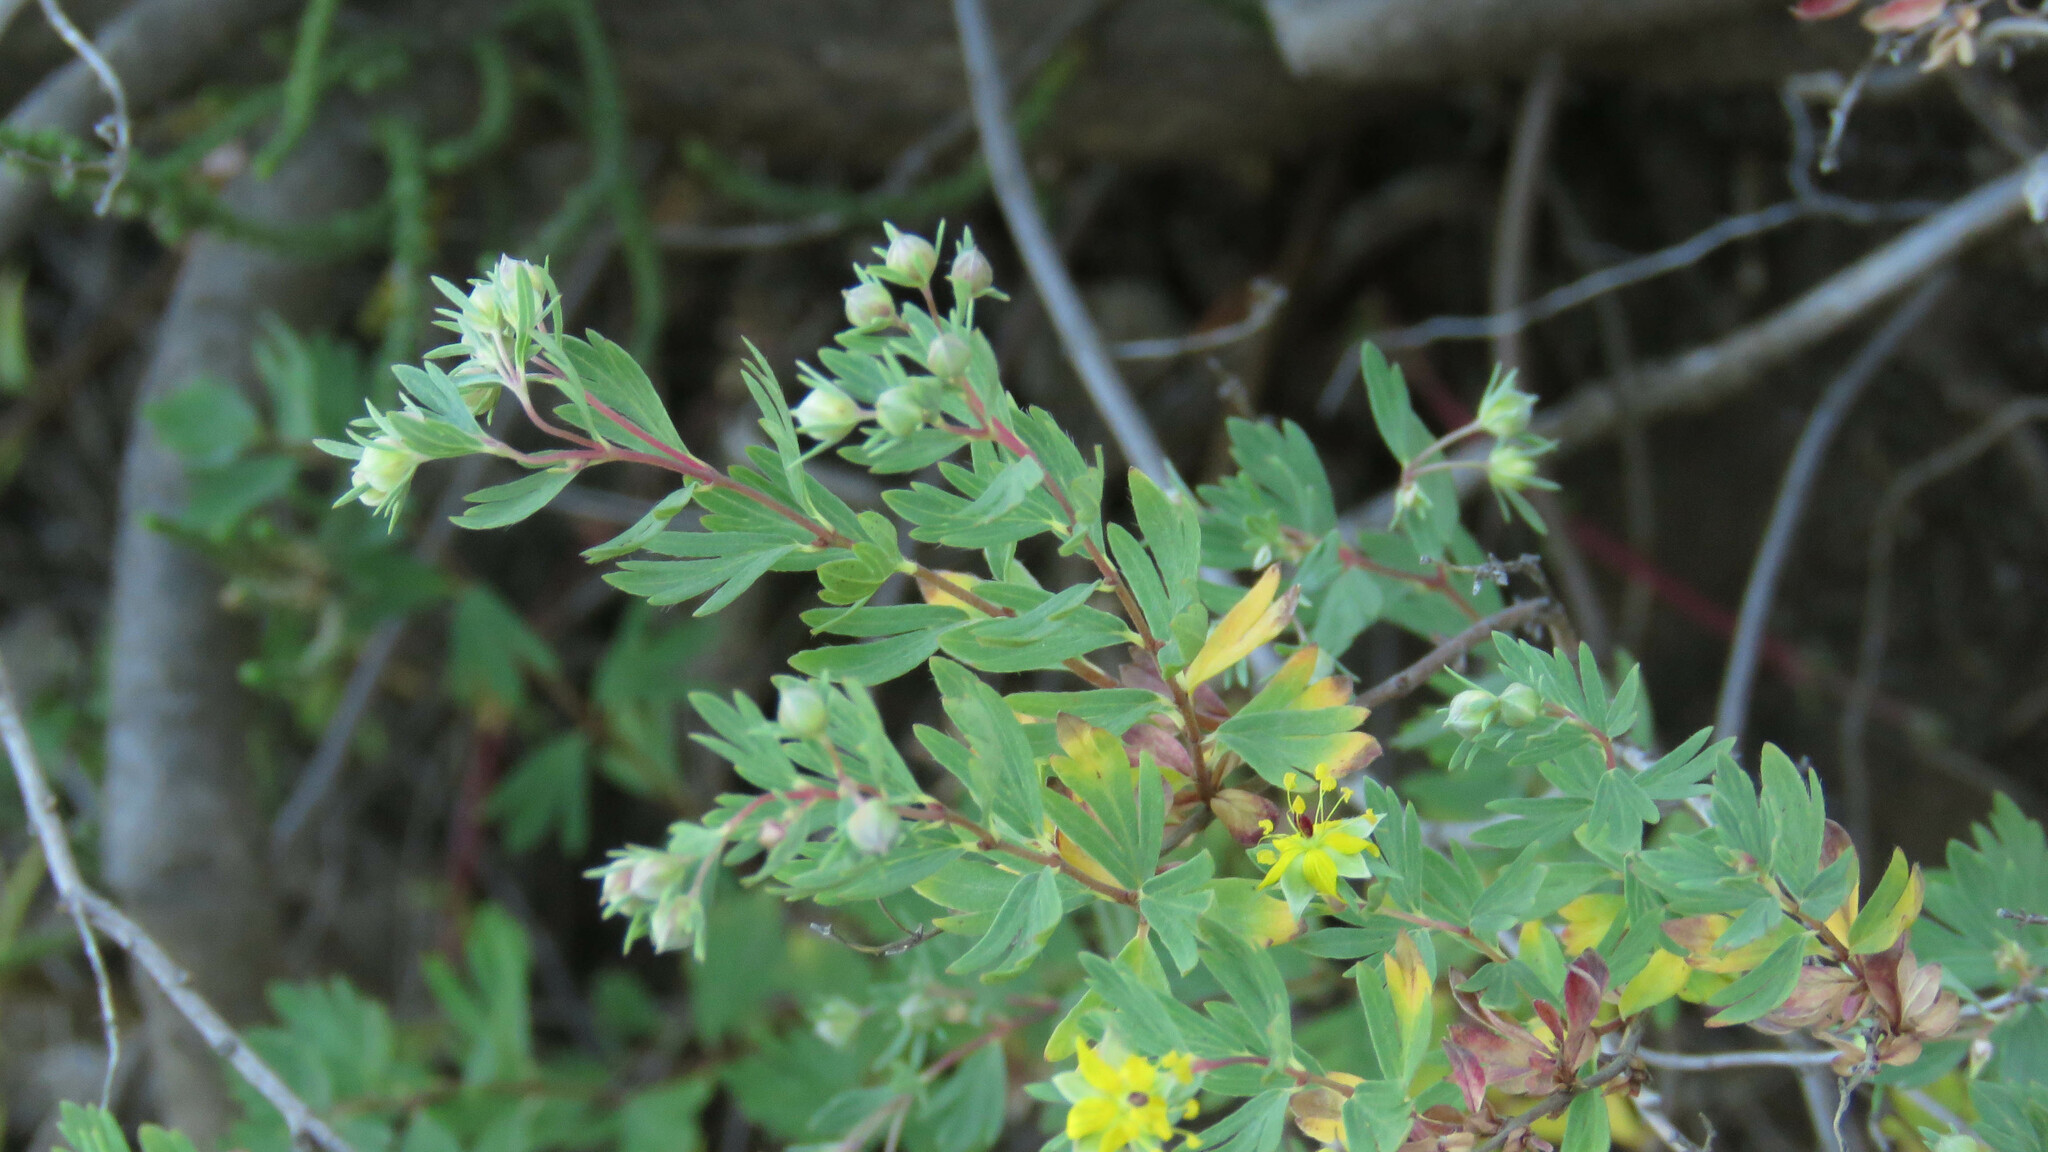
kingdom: Plantae
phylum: Tracheophyta
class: Magnoliopsida
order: Geraniales
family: Vivianiaceae
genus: Wendtia
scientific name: Wendtia gracilis
